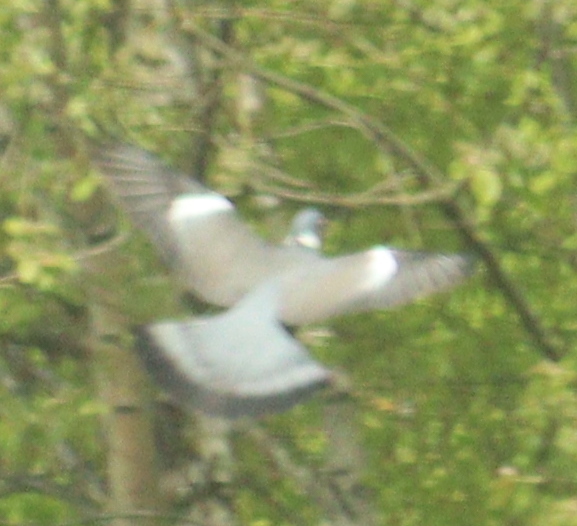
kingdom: Animalia
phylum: Chordata
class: Aves
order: Columbiformes
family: Columbidae
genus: Columba
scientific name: Columba palumbus
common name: Common wood pigeon
